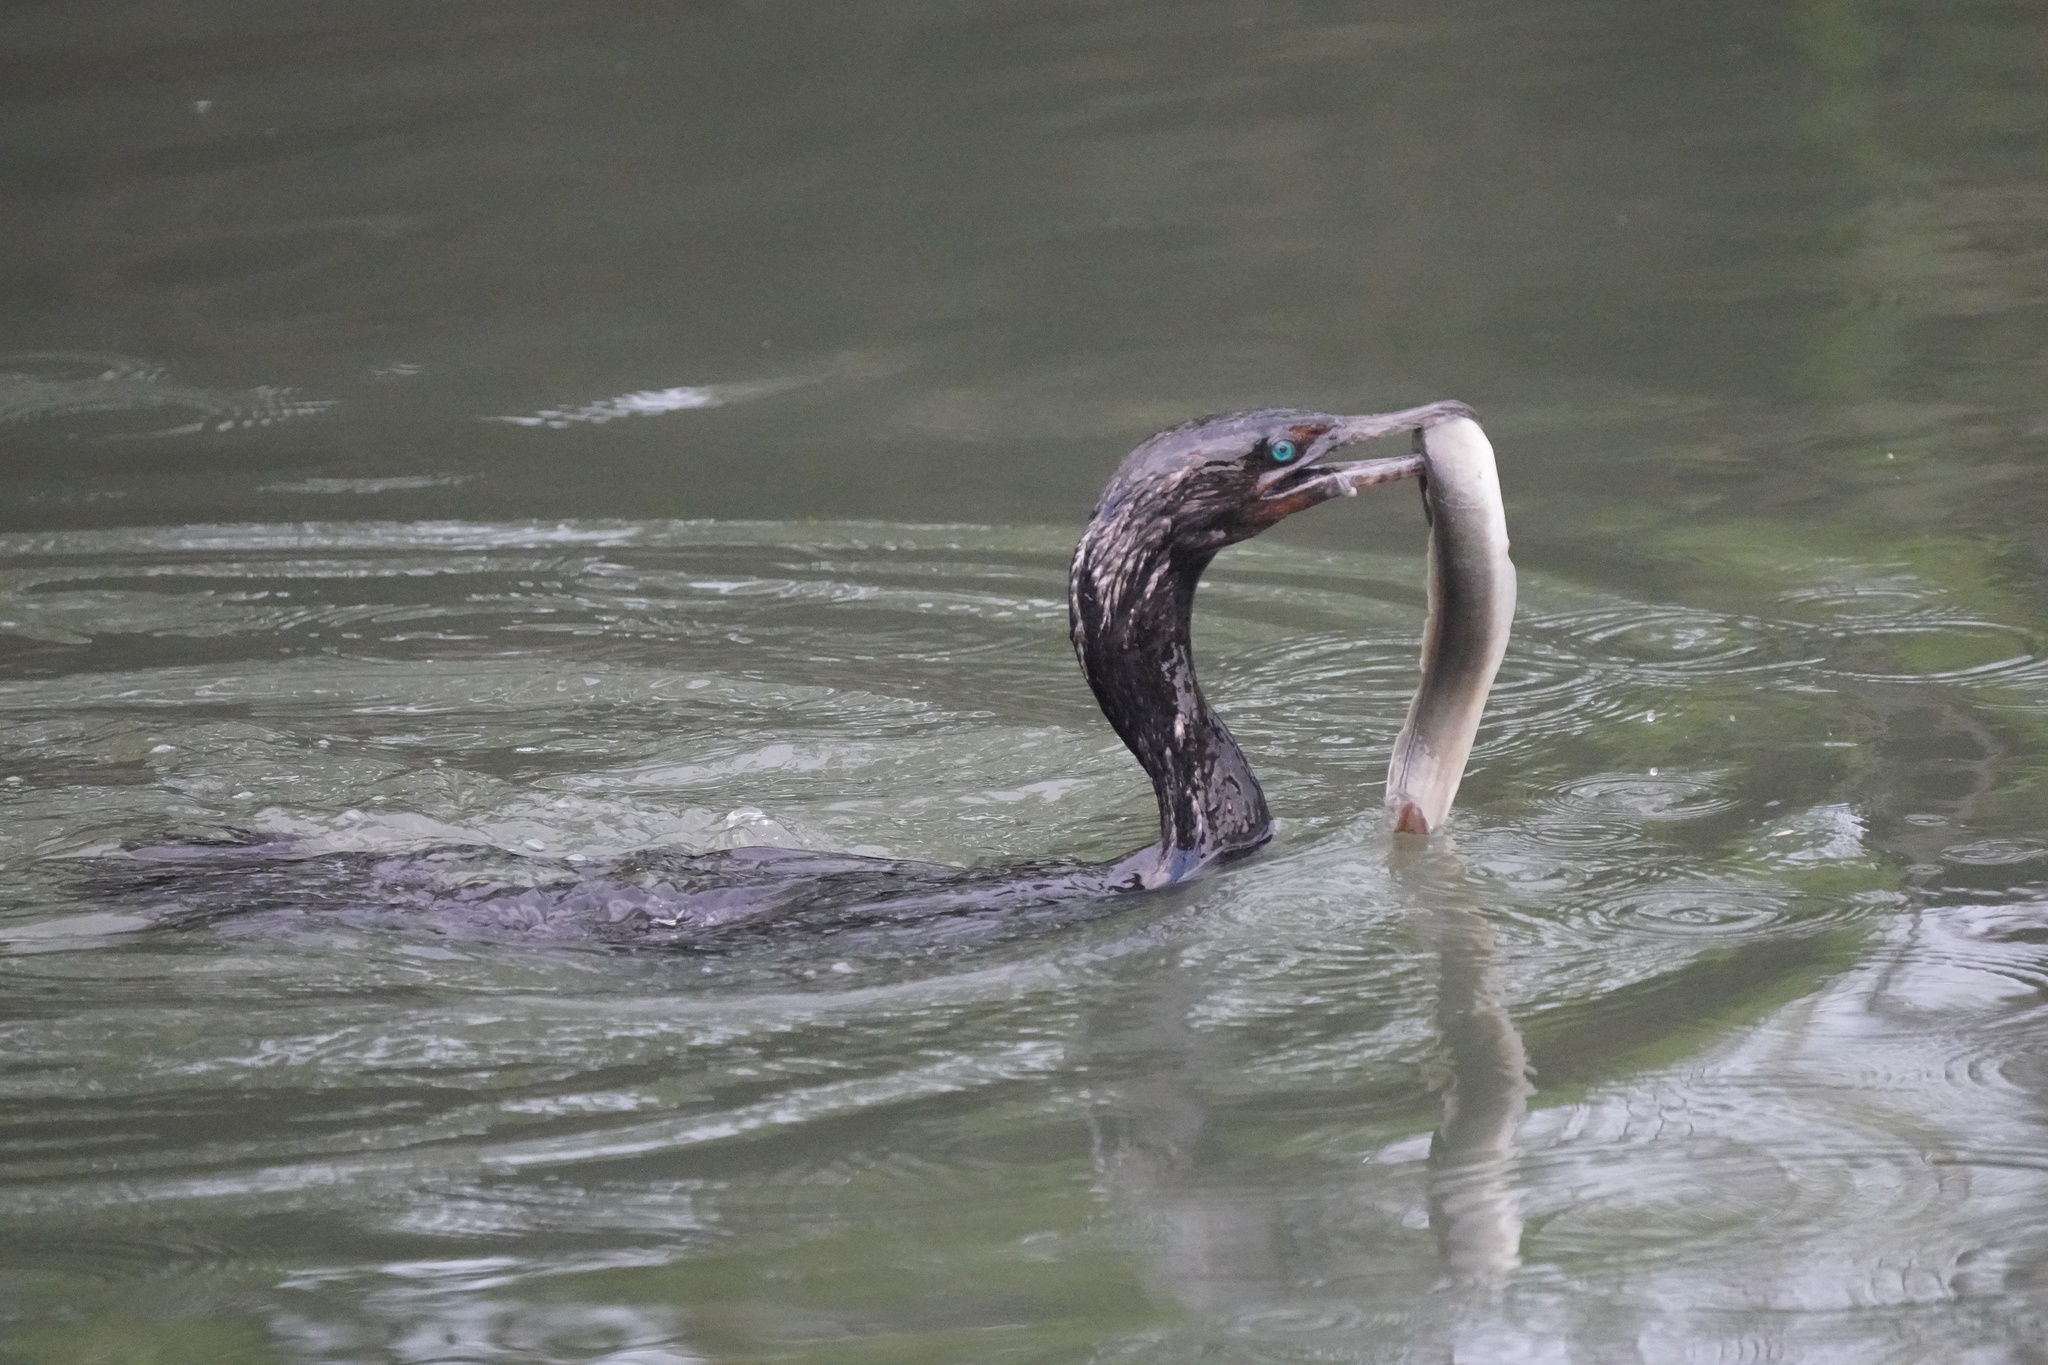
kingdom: Animalia
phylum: Chordata
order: Anguilliformes
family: Anguillidae
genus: Anguilla
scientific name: Anguilla rostrata
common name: American eel
